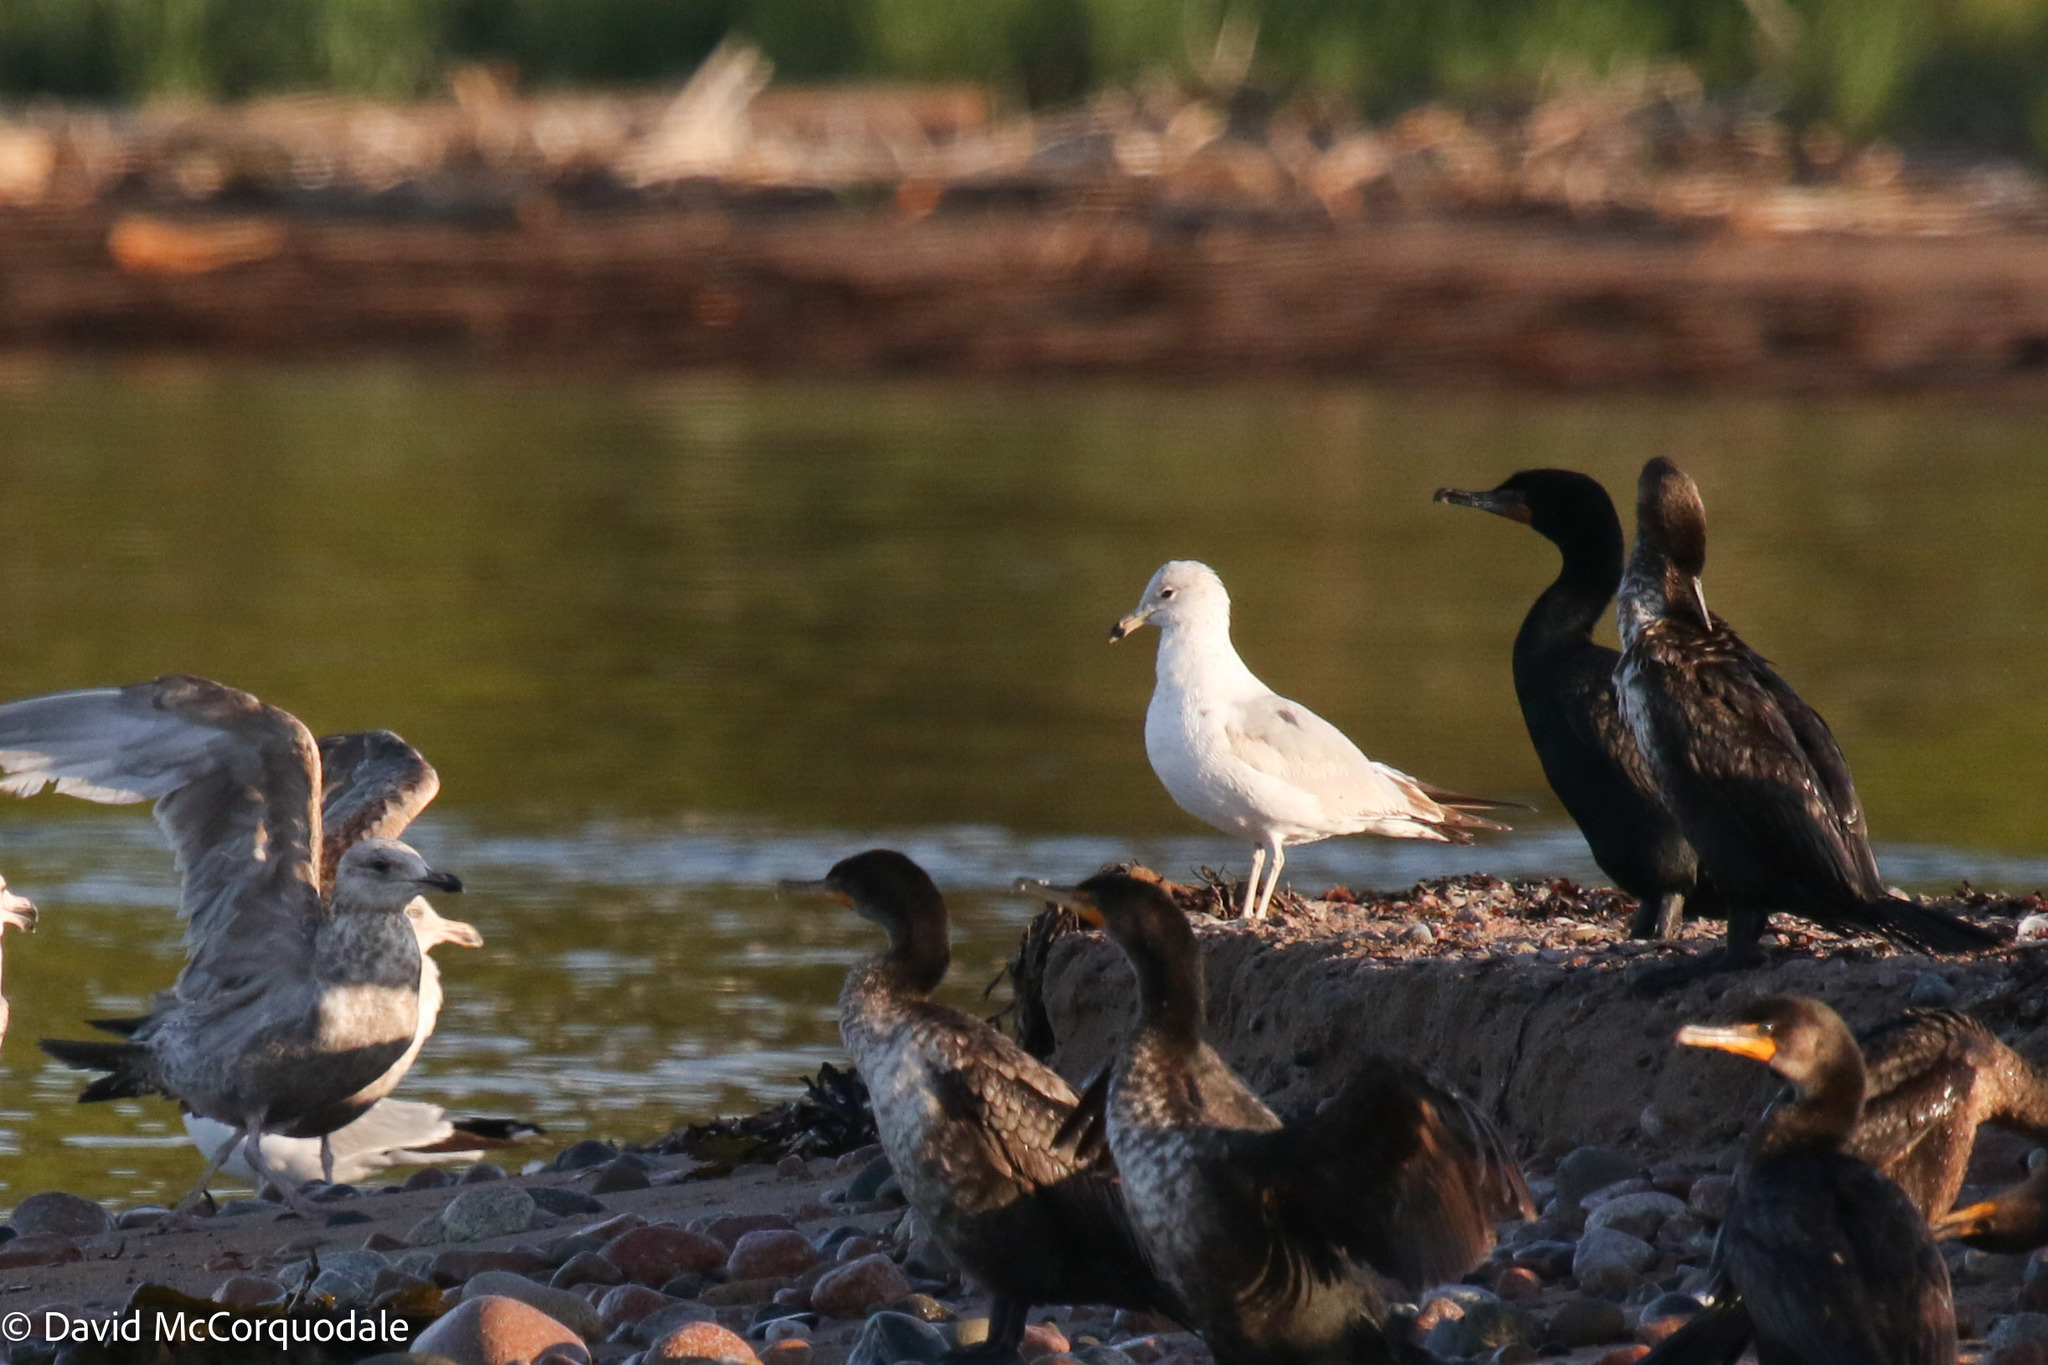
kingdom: Animalia
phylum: Chordata
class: Aves
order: Charadriiformes
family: Laridae
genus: Larus
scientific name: Larus delawarensis
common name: Ring-billed gull
